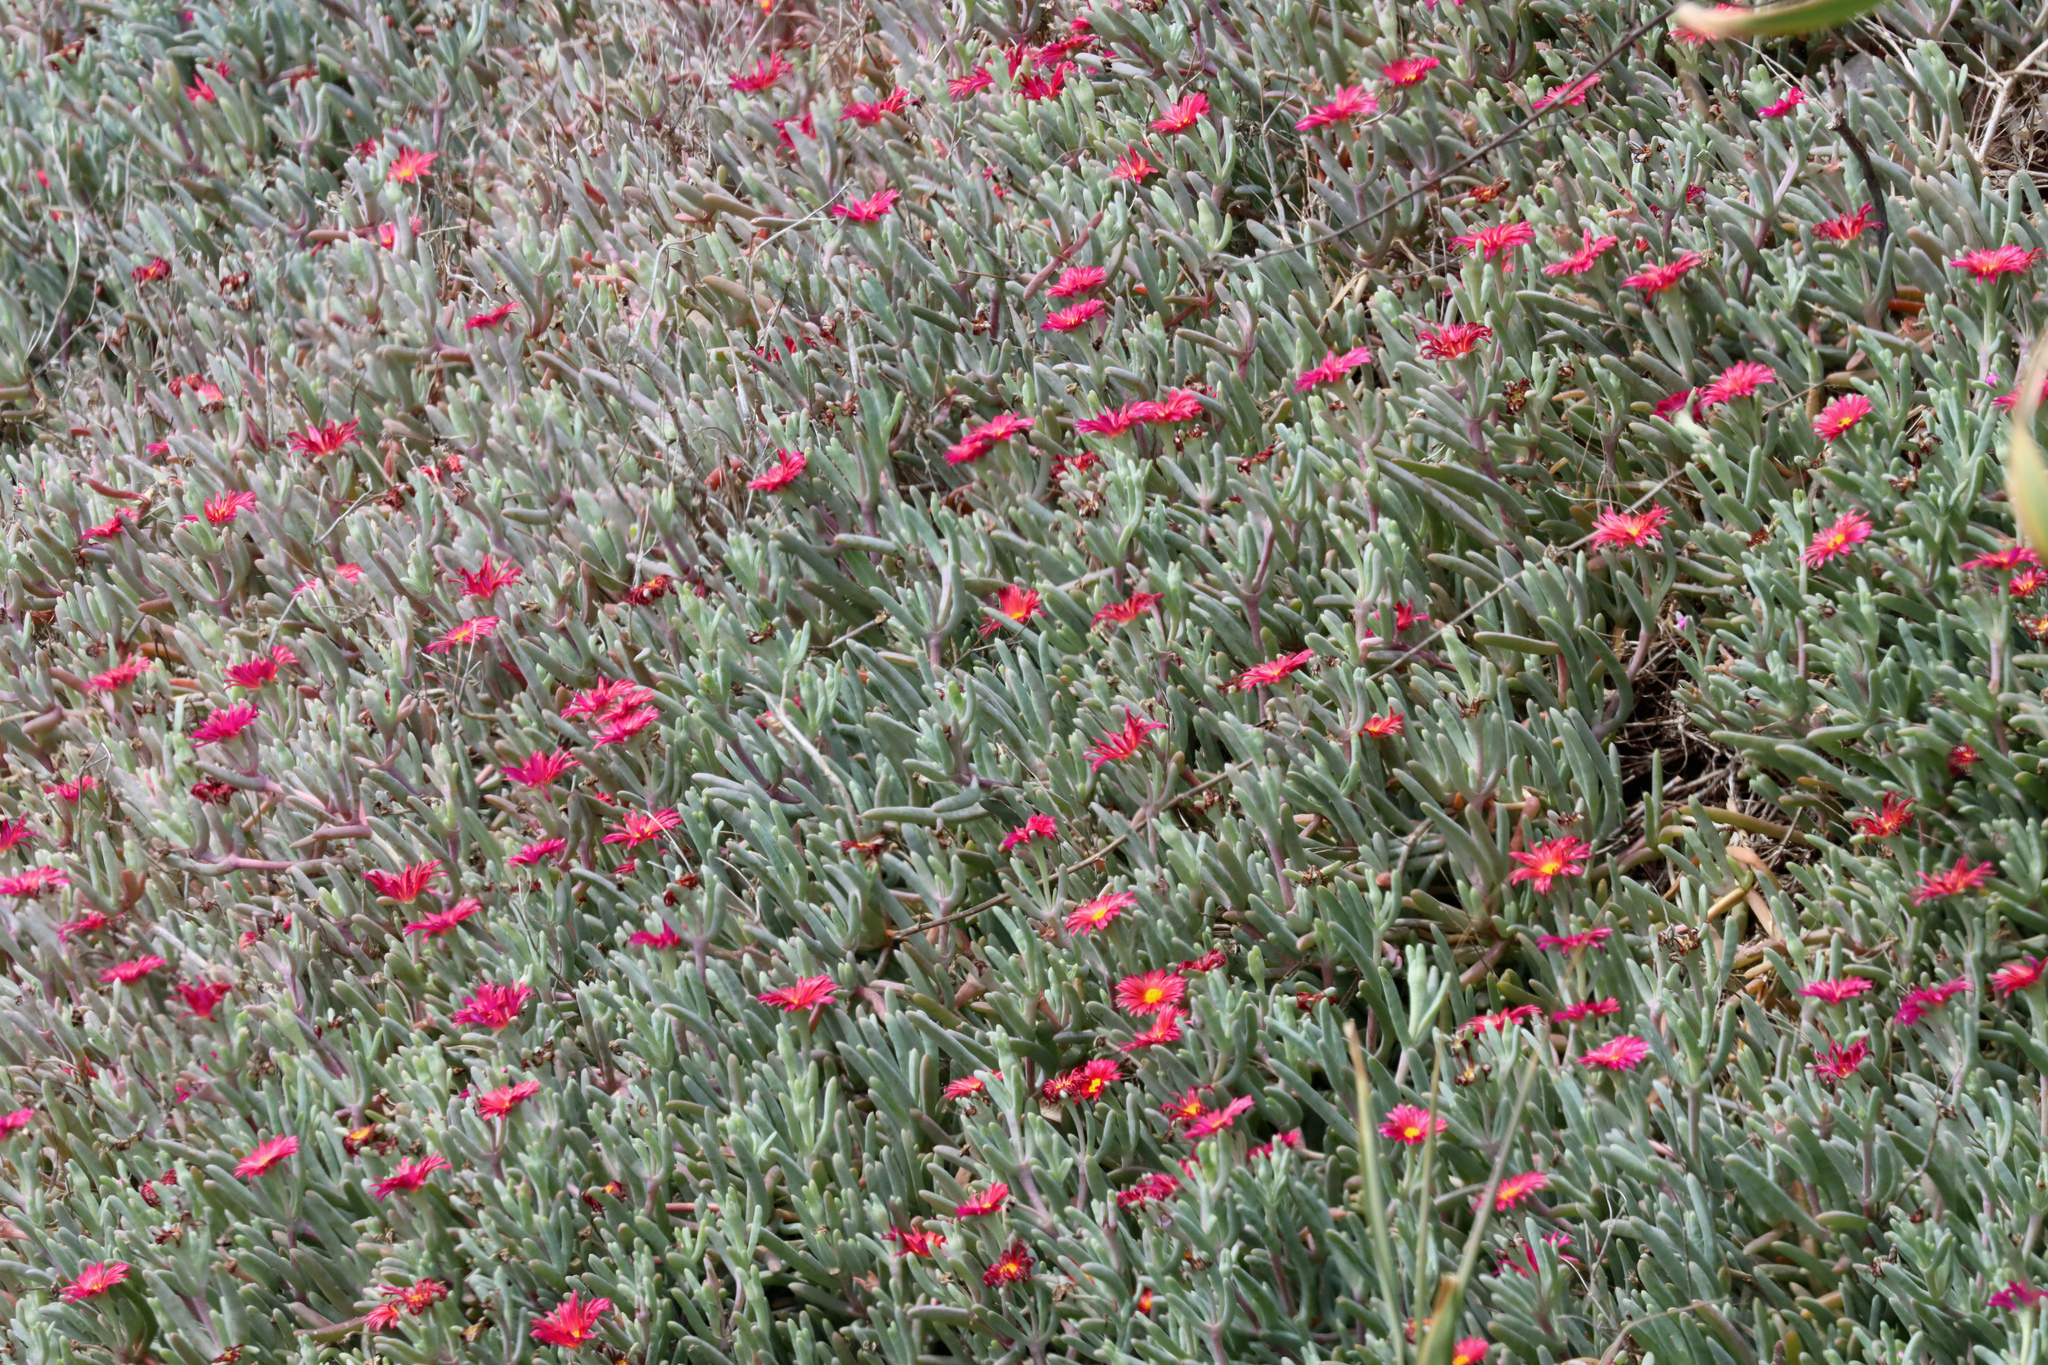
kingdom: Plantae
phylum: Tracheophyta
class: Magnoliopsida
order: Caryophyllales
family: Aizoaceae
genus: Malephora
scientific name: Malephora crocea
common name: Coppery mesemb
